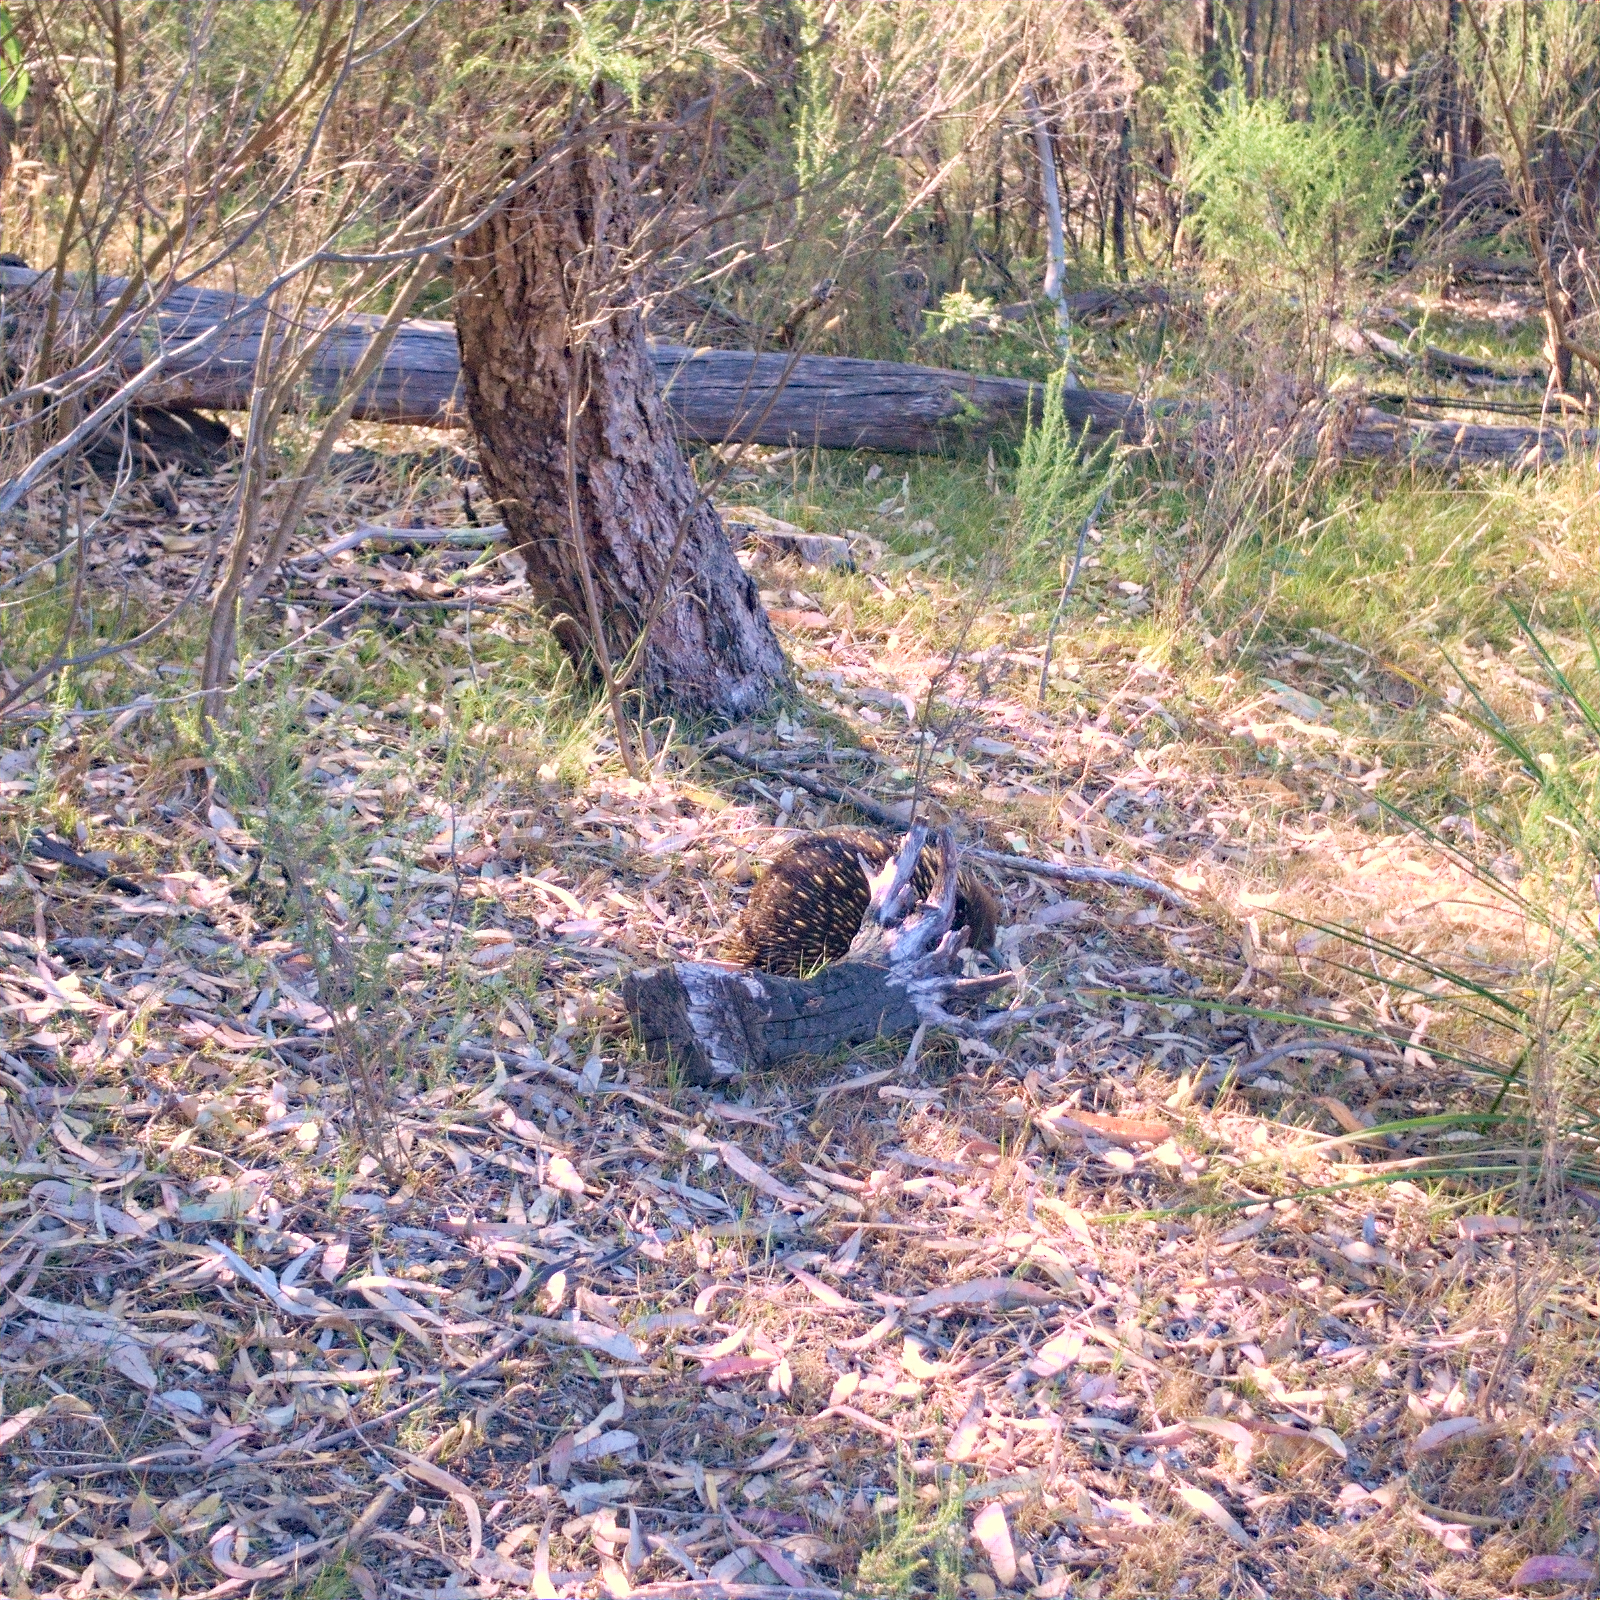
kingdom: Animalia
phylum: Chordata
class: Mammalia
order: Monotremata
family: Tachyglossidae
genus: Tachyglossus
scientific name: Tachyglossus aculeatus
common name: Short-beaked echidna
